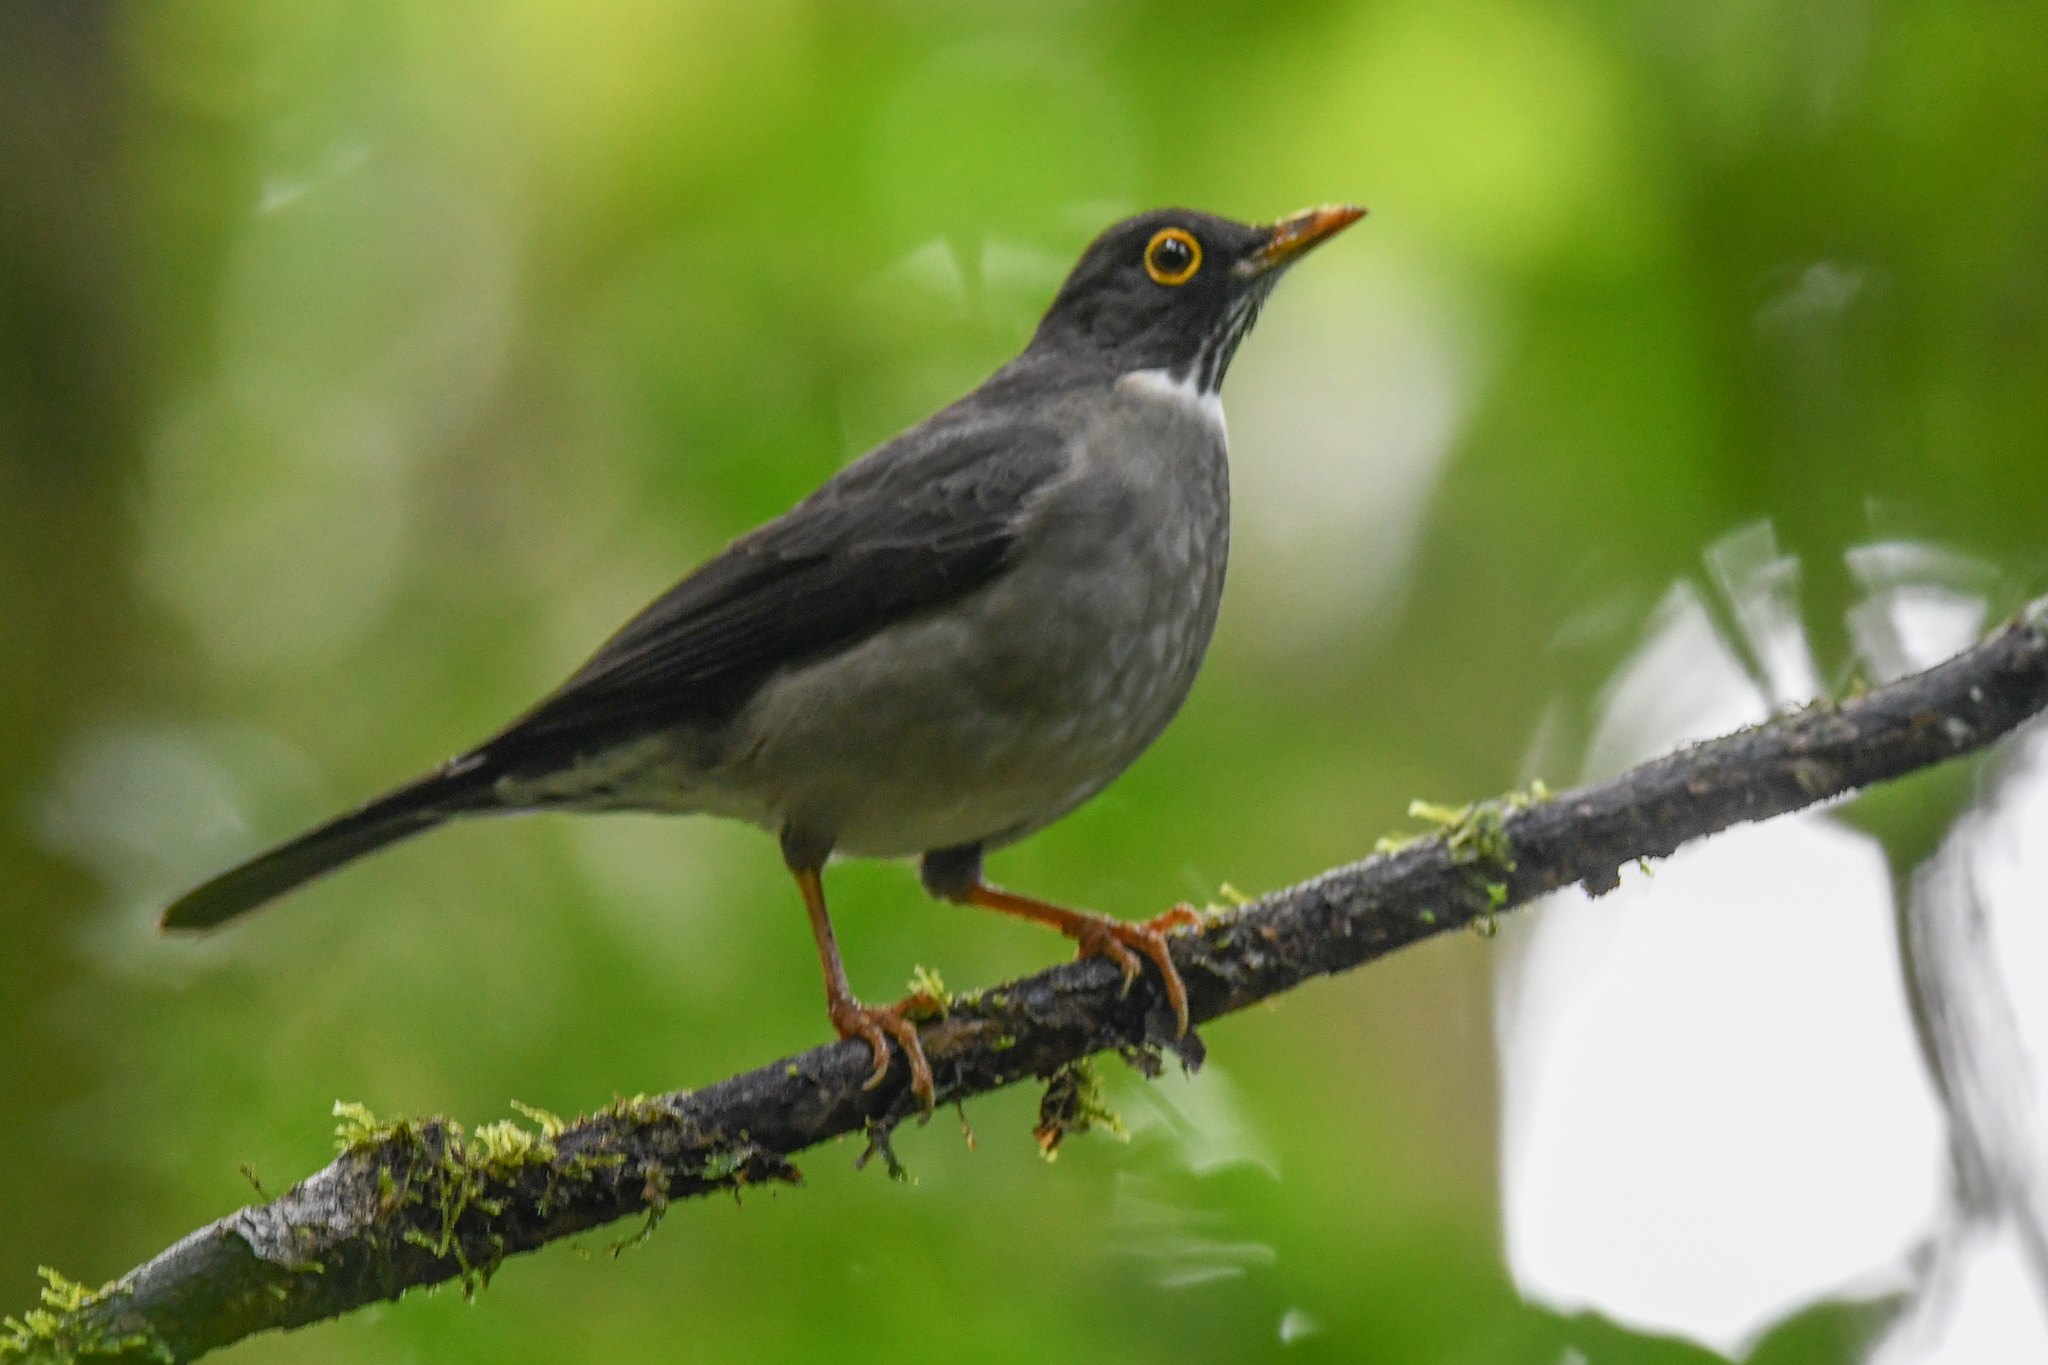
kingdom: Animalia
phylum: Chordata
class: Aves
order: Passeriformes
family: Turdidae
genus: Turdus
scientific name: Turdus assimilis
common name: White-throated thrush
